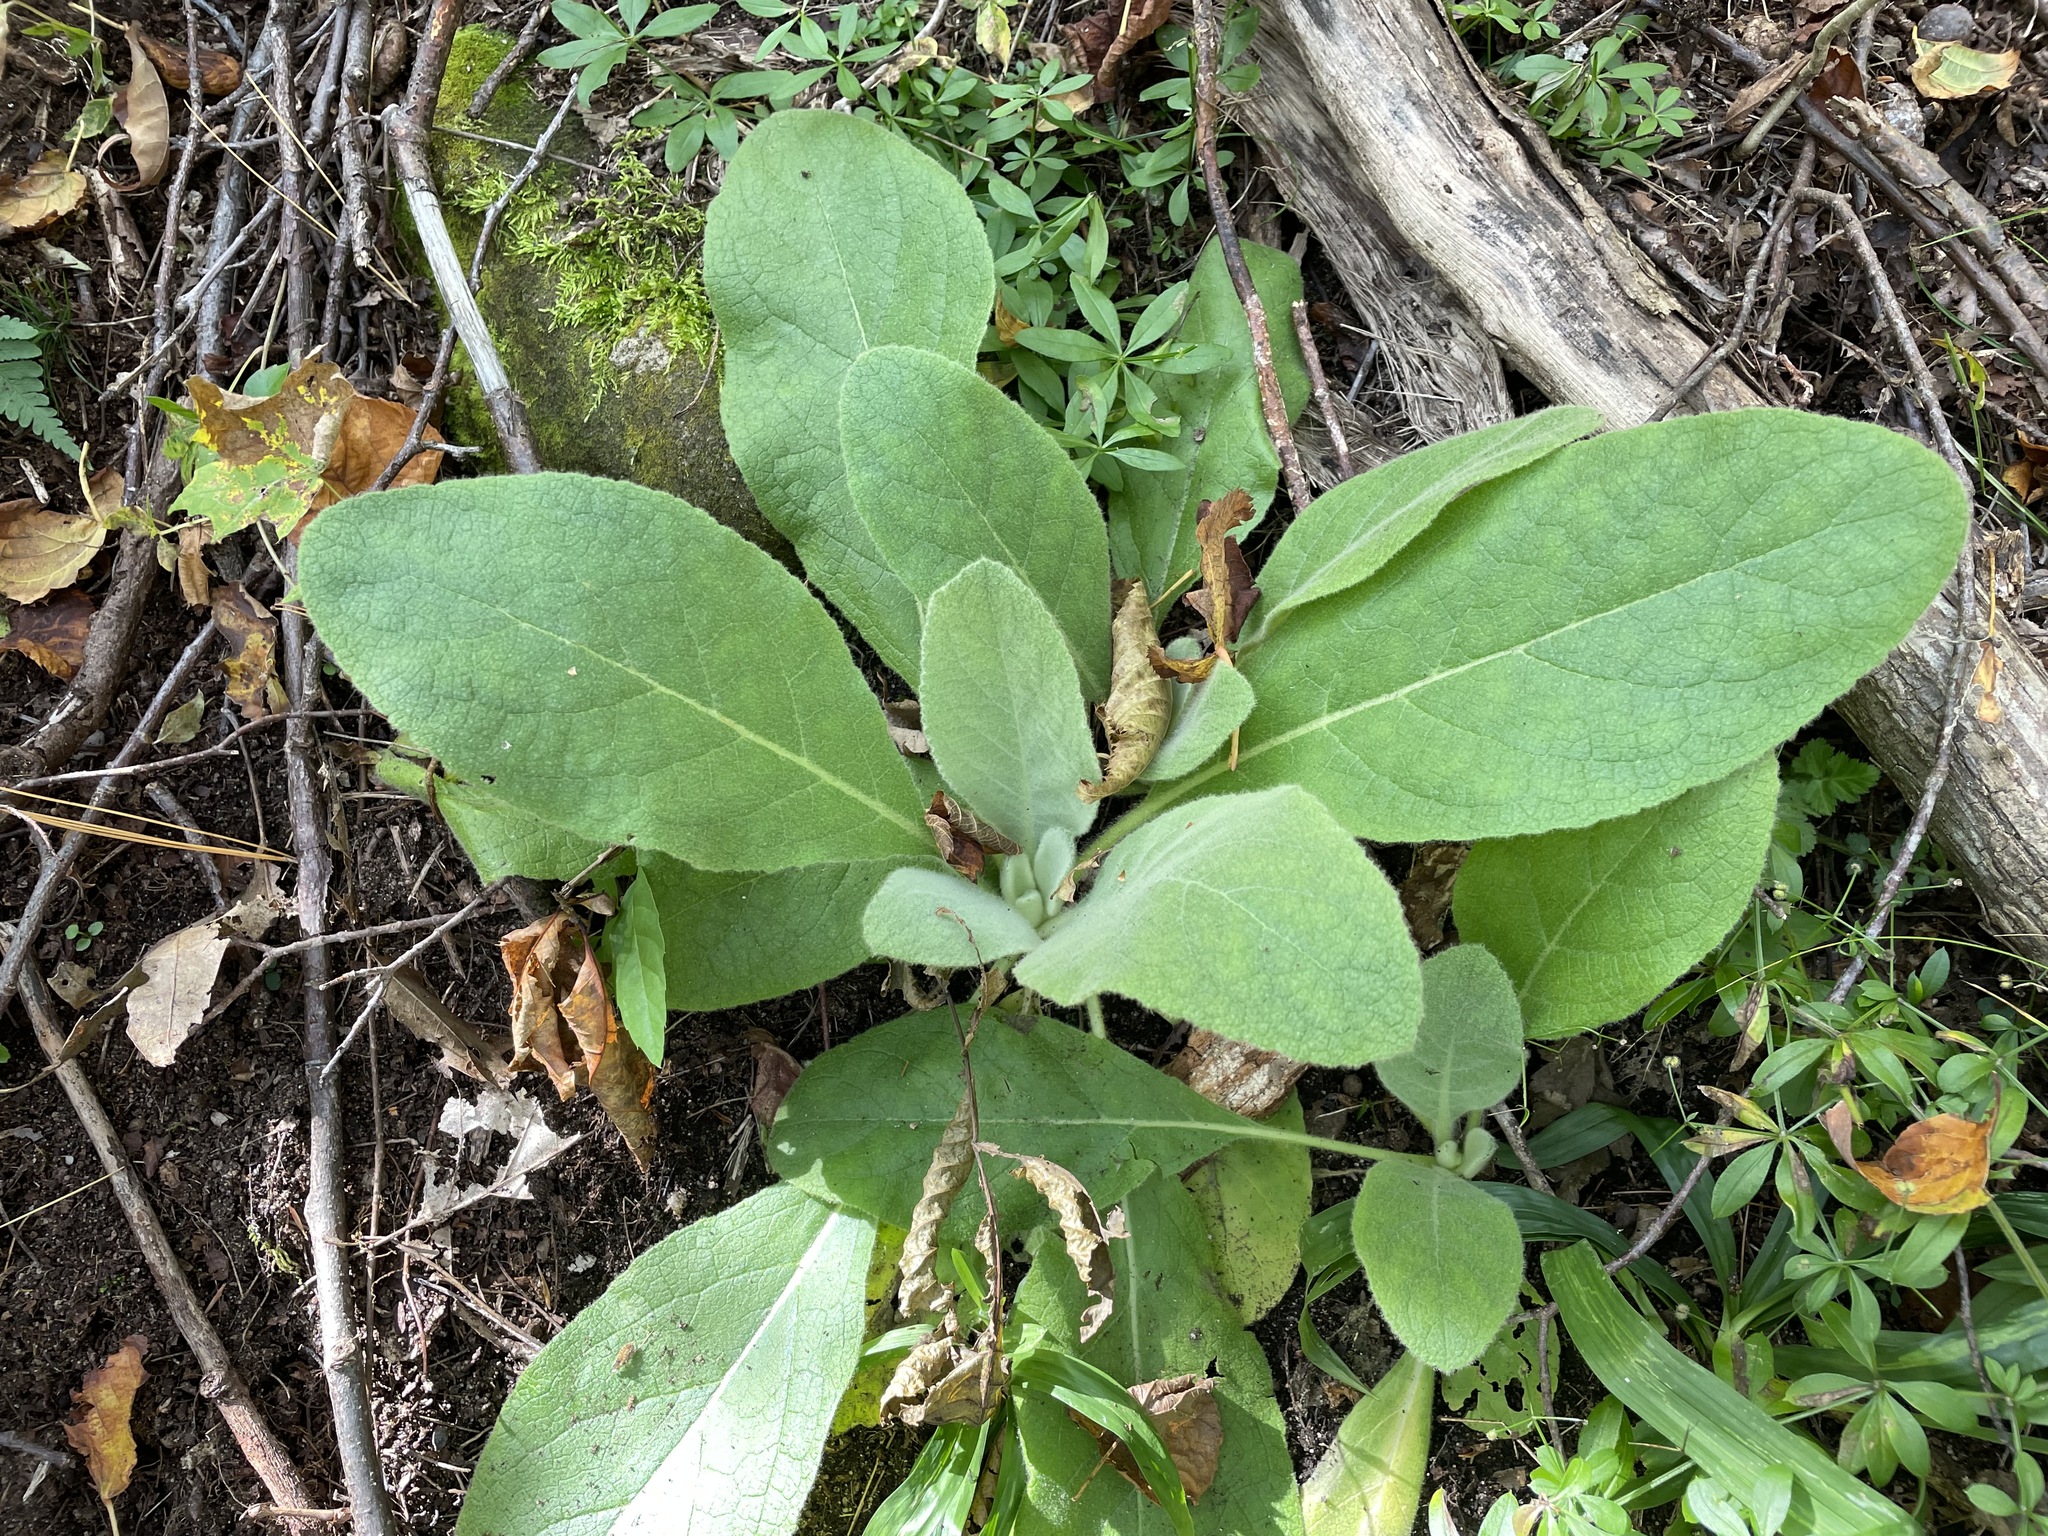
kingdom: Plantae
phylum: Tracheophyta
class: Magnoliopsida
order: Lamiales
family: Scrophulariaceae
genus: Verbascum
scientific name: Verbascum thapsus
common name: Common mullein
